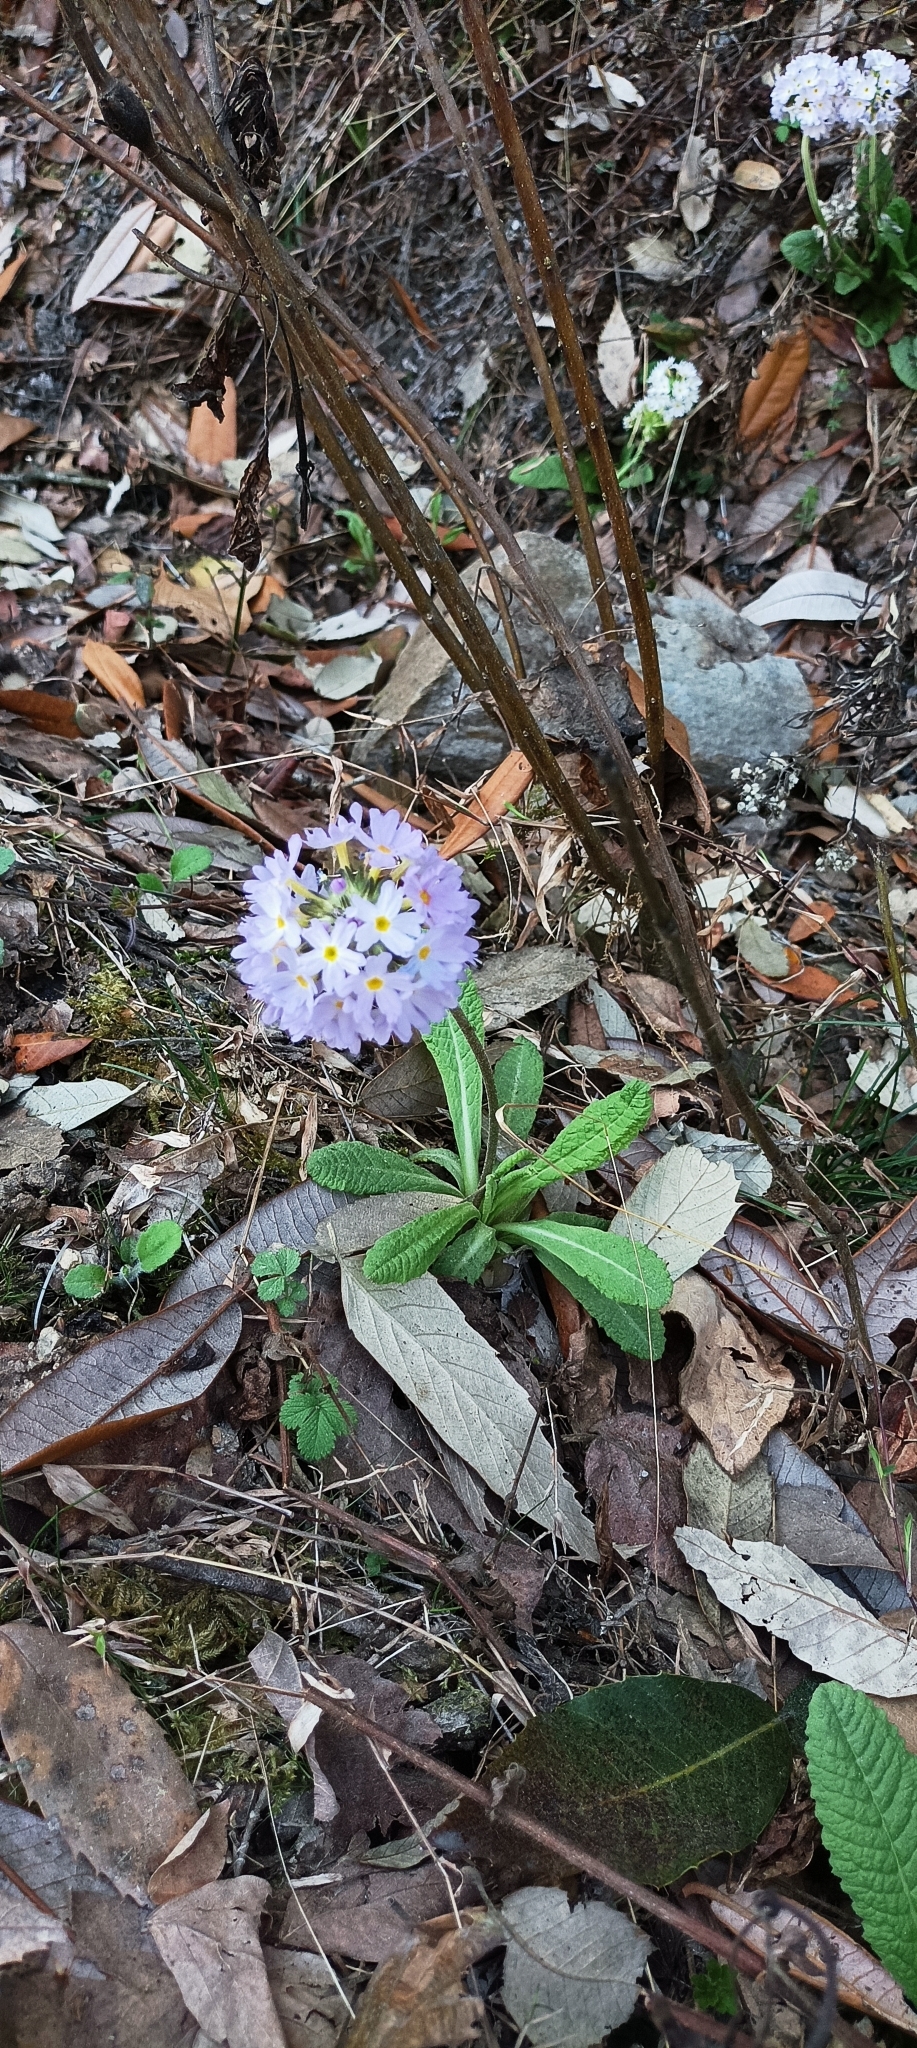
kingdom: Plantae
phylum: Tracheophyta
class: Magnoliopsida
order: Ericales
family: Primulaceae
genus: Primula
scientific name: Primula denticulata
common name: Drumstick primula
